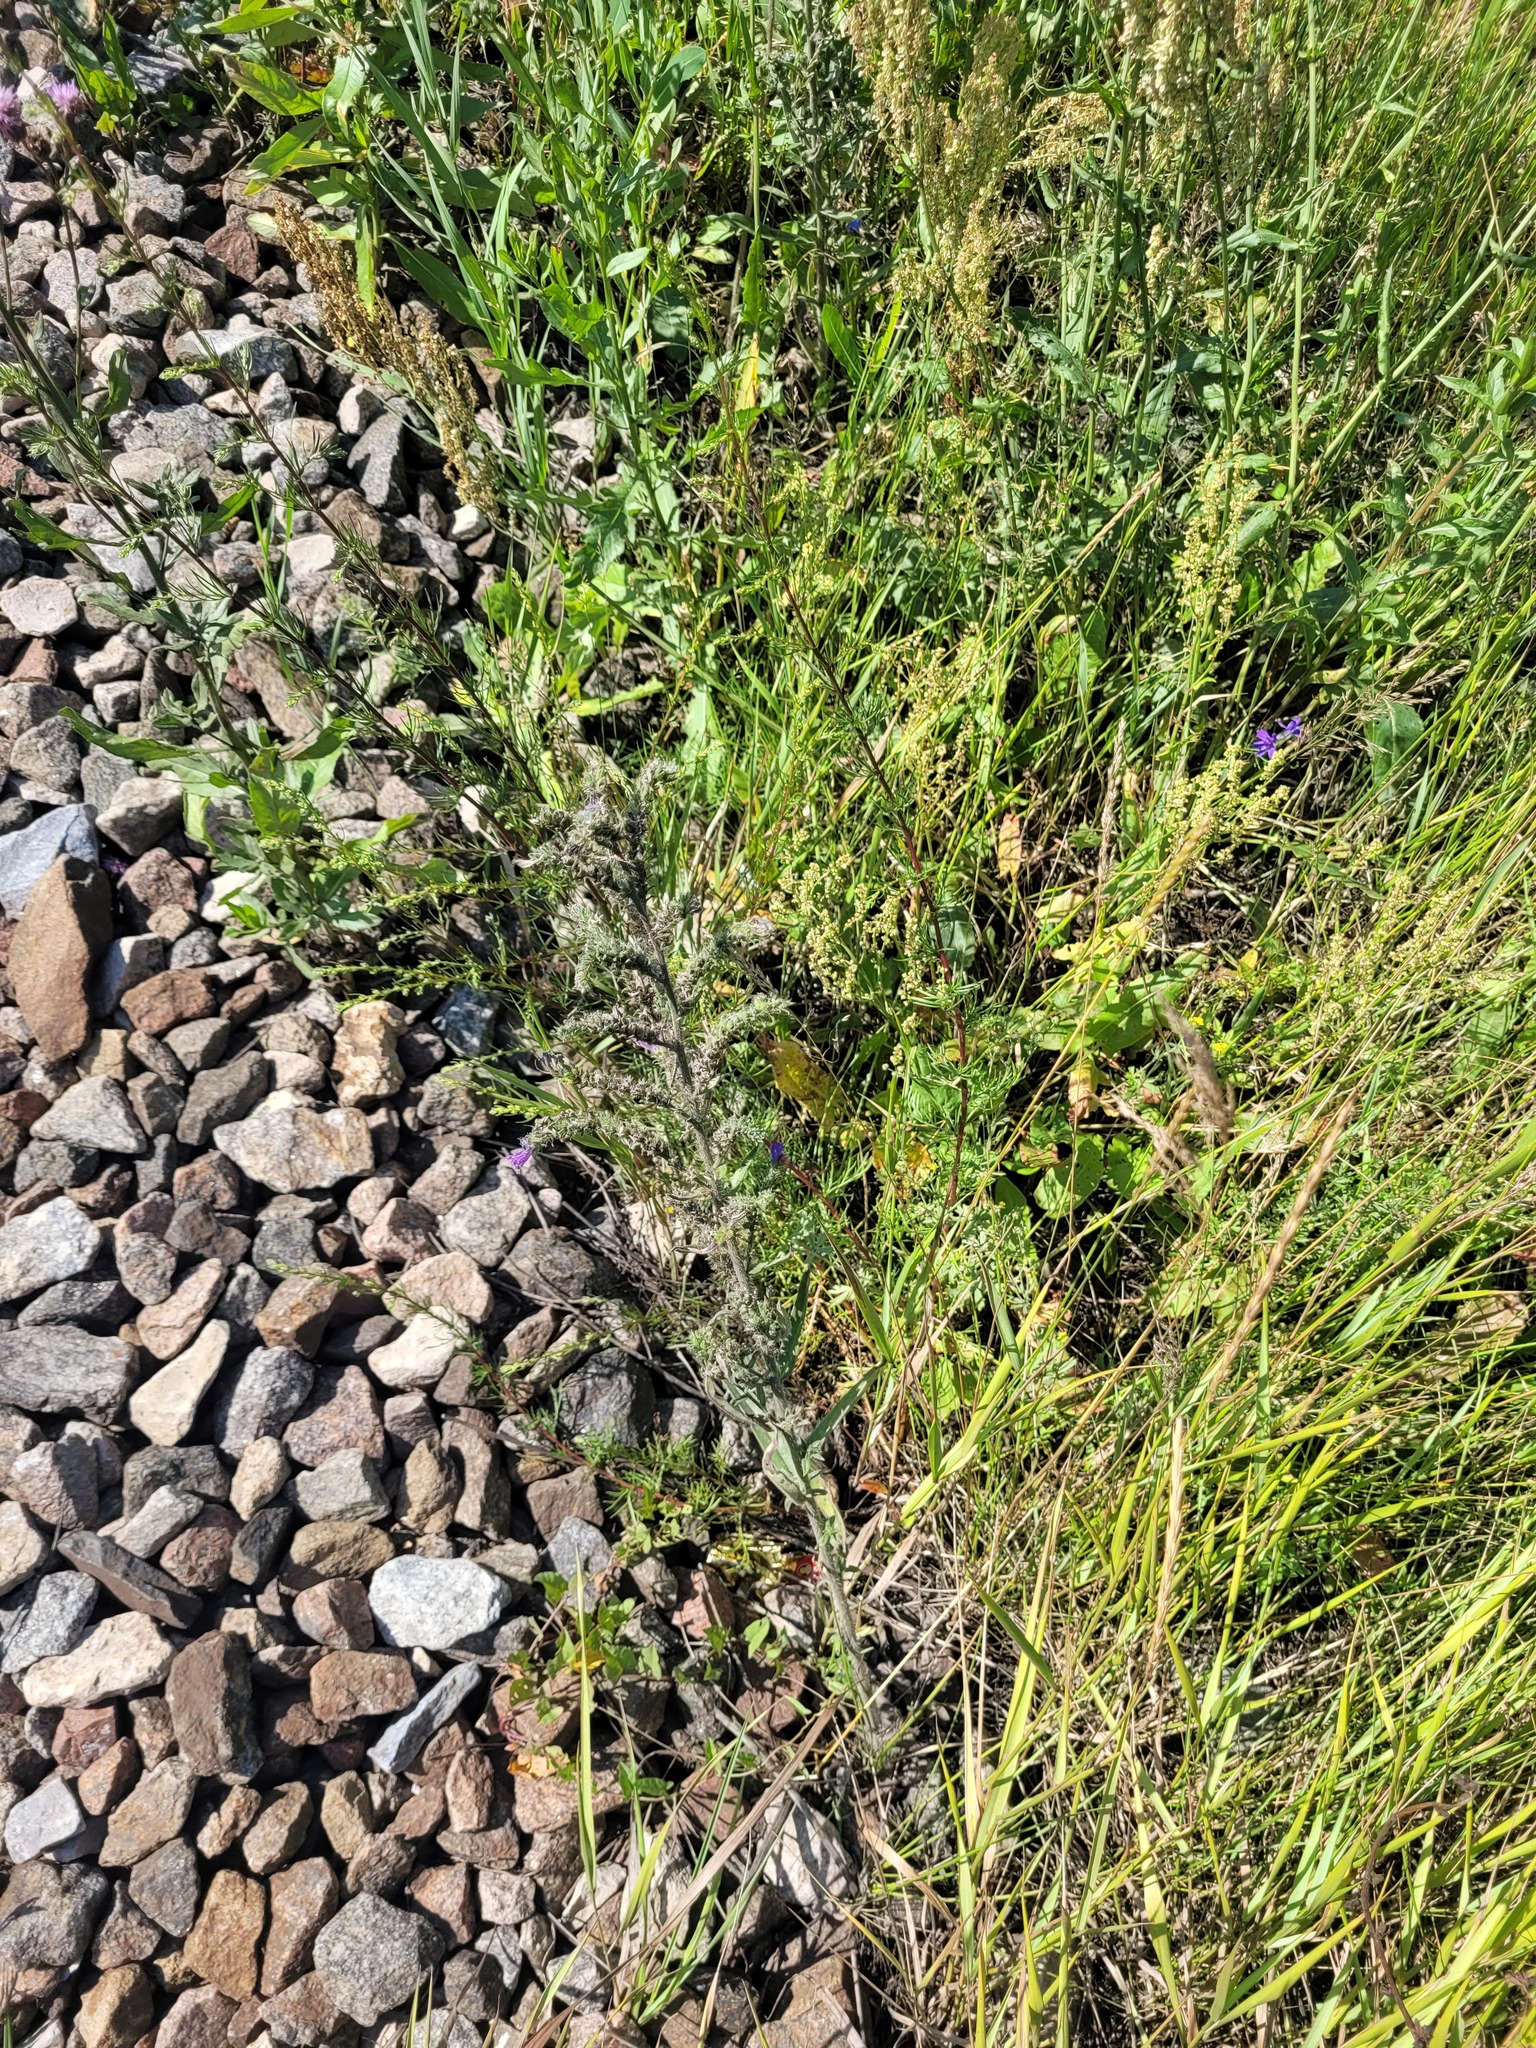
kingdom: Plantae
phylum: Tracheophyta
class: Magnoliopsida
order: Boraginales
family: Boraginaceae
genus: Echium
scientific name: Echium vulgare
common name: Common viper's bugloss
